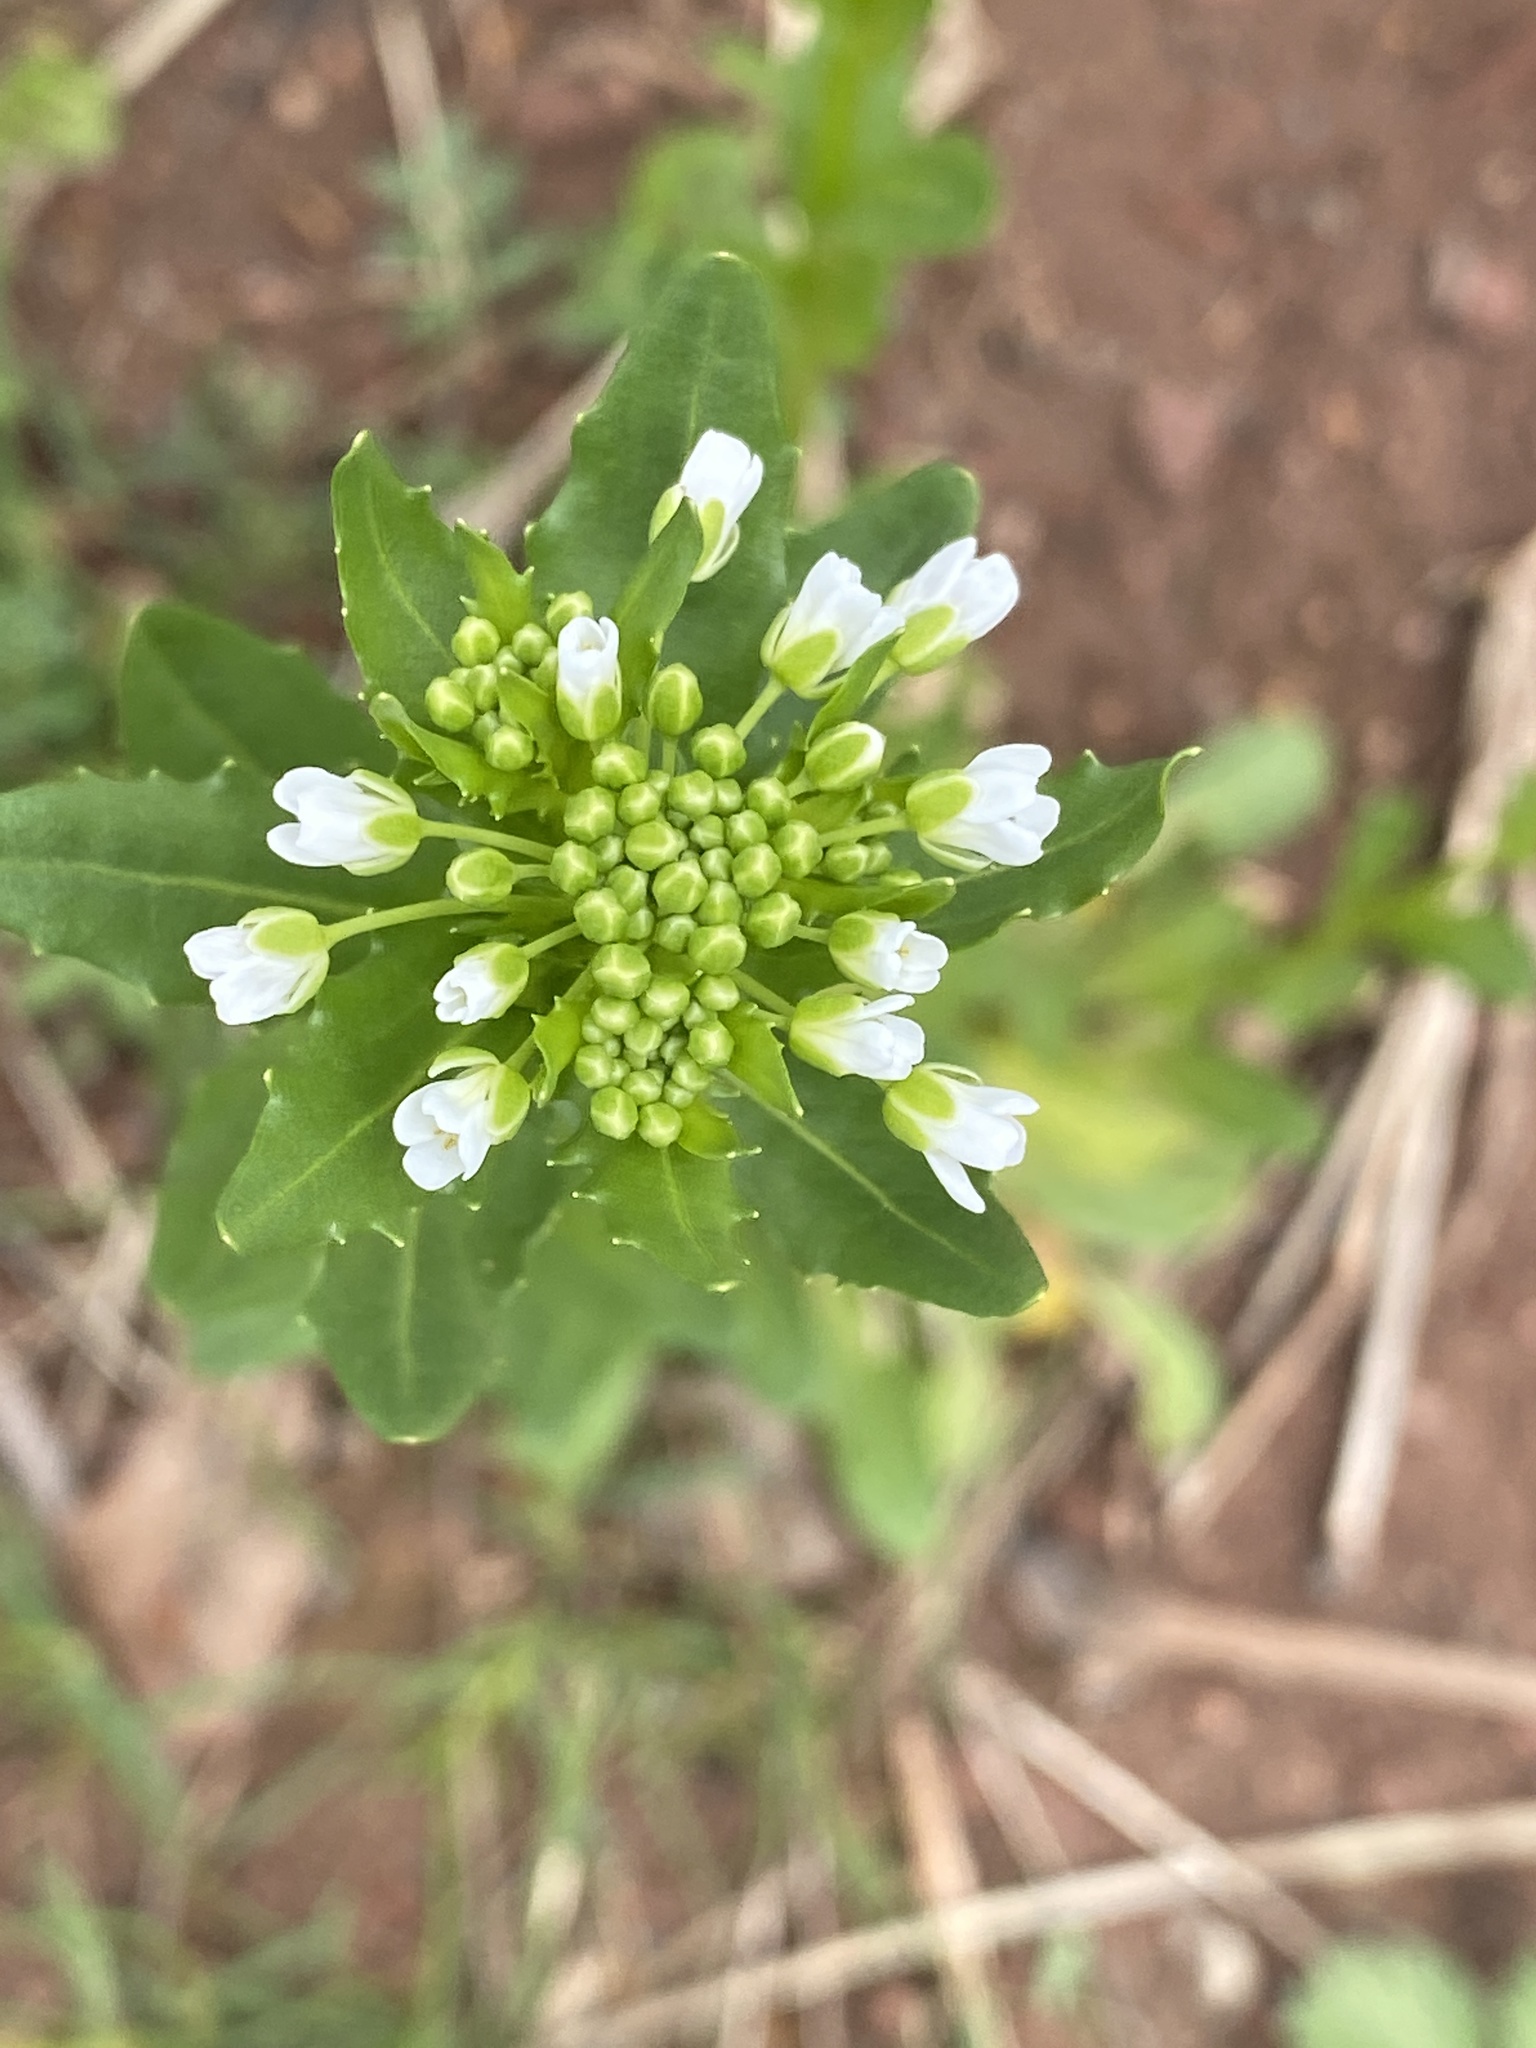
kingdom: Plantae
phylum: Tracheophyta
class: Magnoliopsida
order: Brassicales
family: Brassicaceae
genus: Thlaspi
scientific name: Thlaspi arvense
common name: Field pennycress
